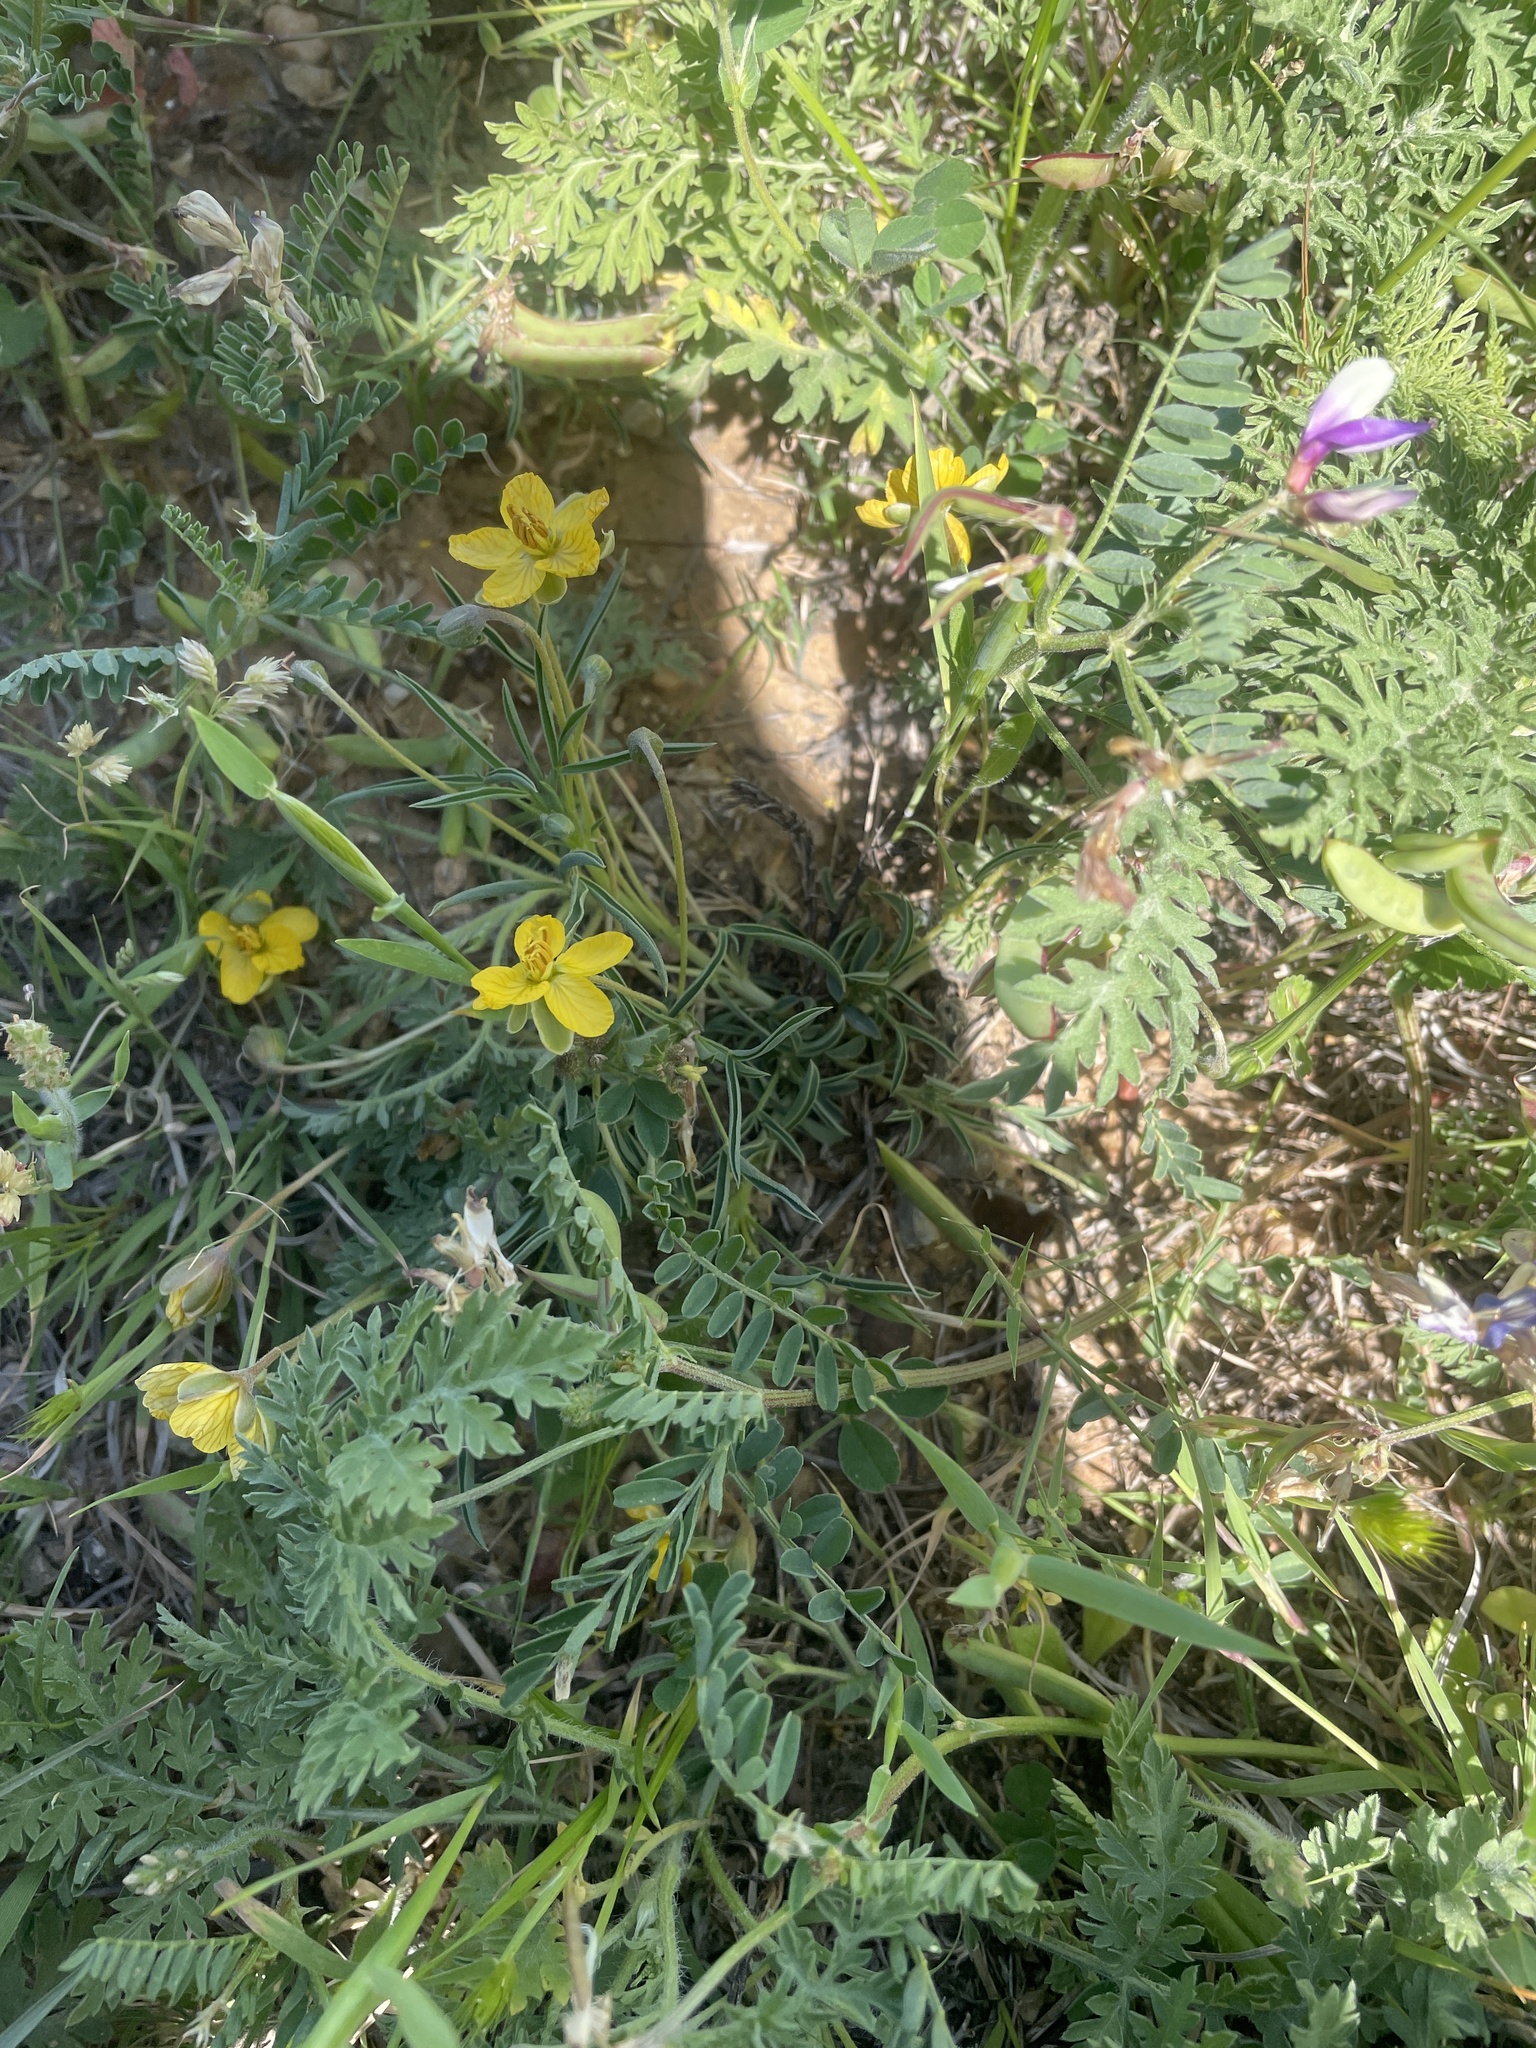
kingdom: Plantae
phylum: Tracheophyta
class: Magnoliopsida
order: Fabales
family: Fabaceae
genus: Senna
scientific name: Senna pumilio
